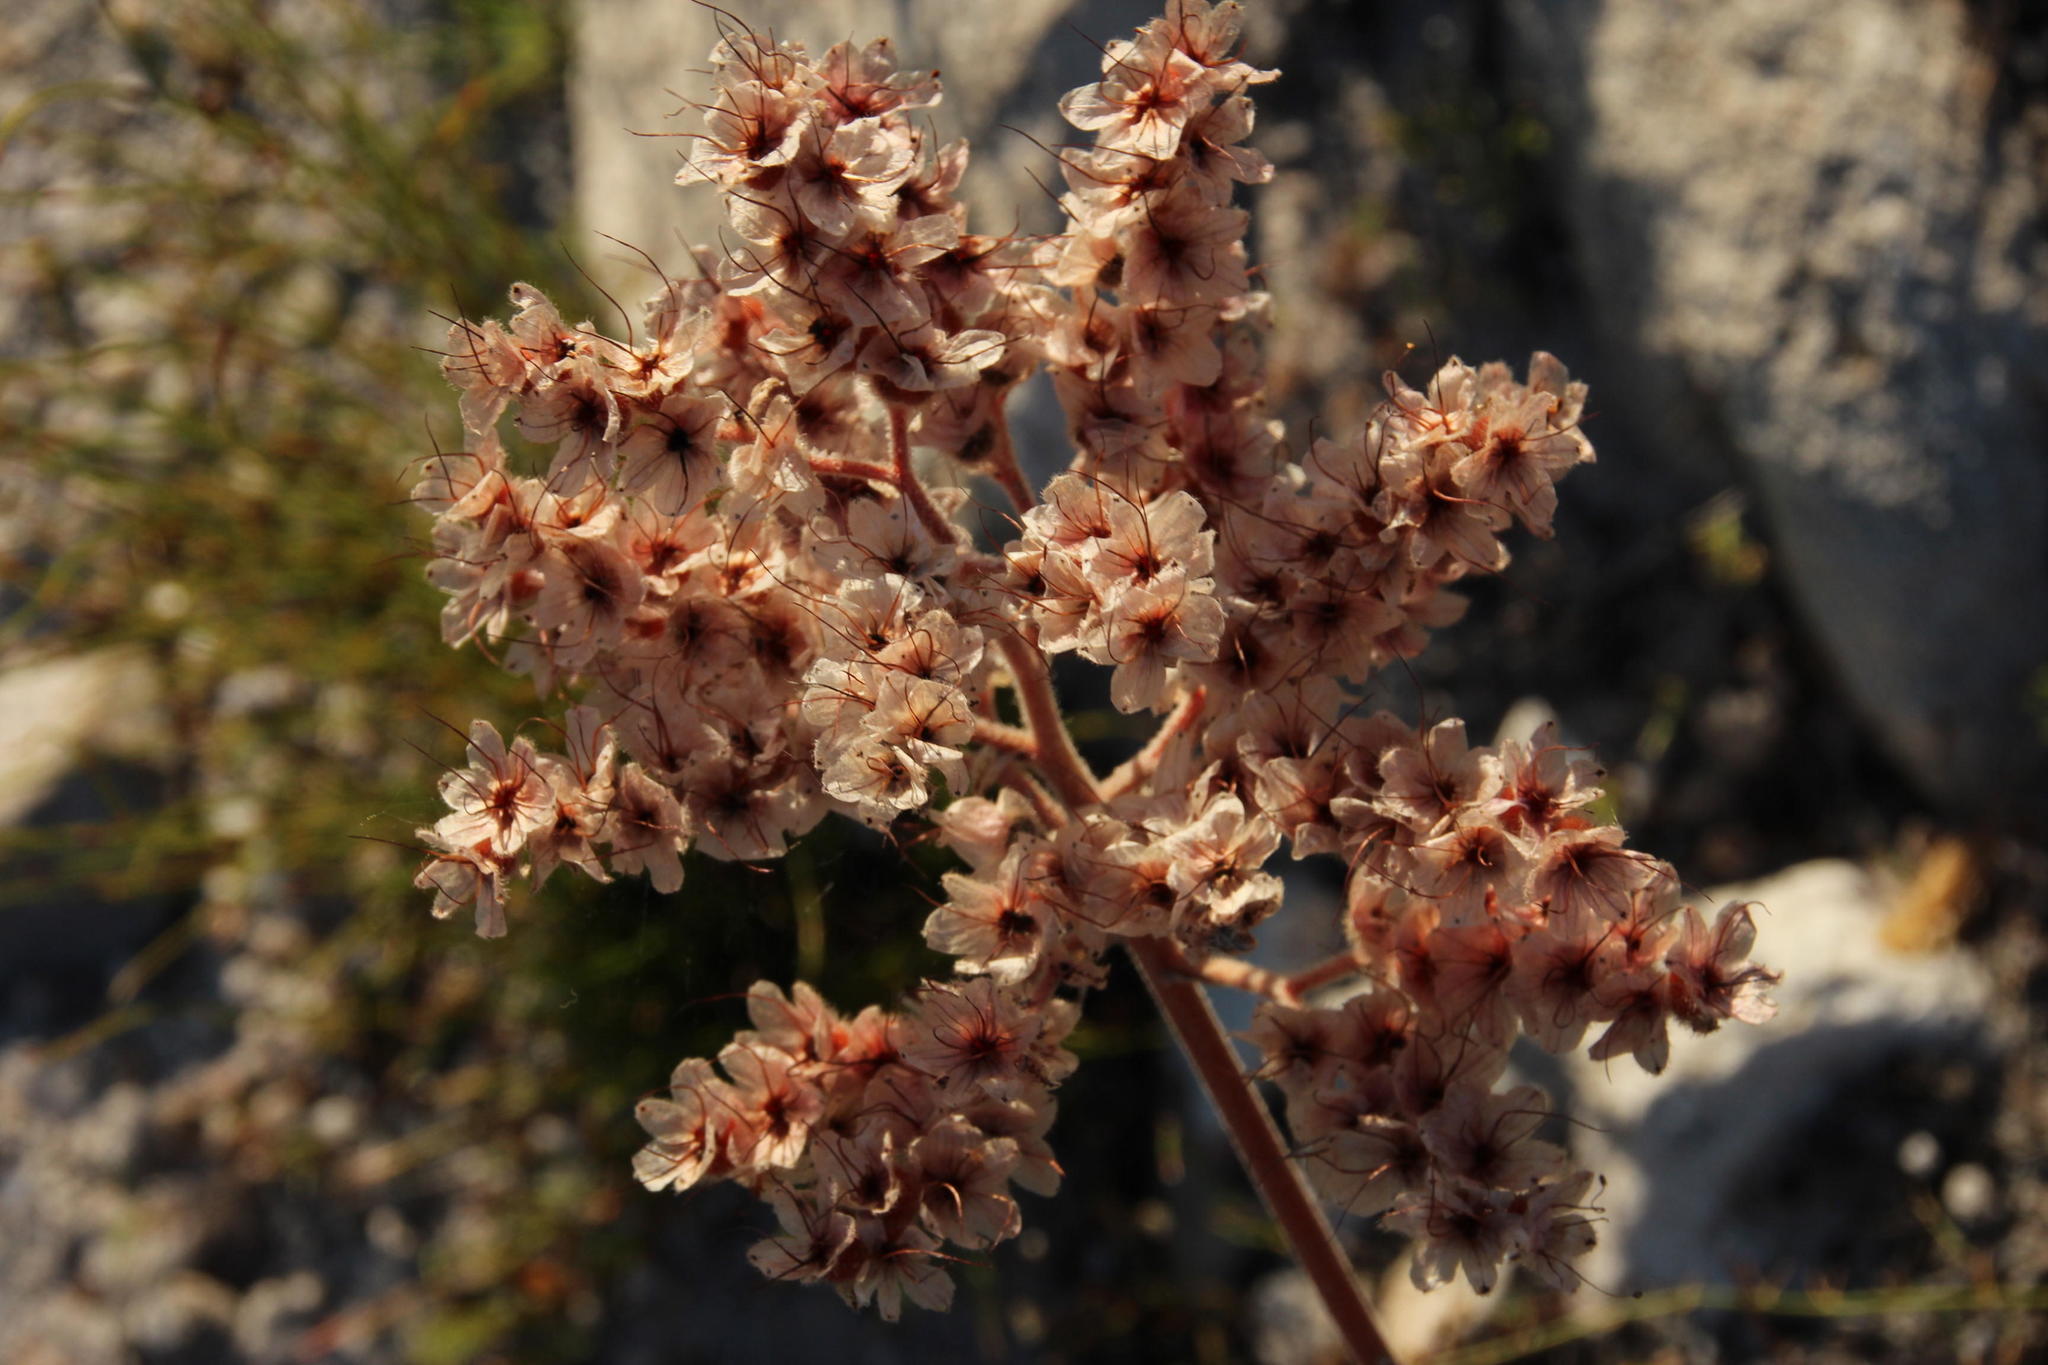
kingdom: Plantae
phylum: Tracheophyta
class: Liliopsida
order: Commelinales
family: Haemodoraceae
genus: Dilatris
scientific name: Dilatris ixioides
